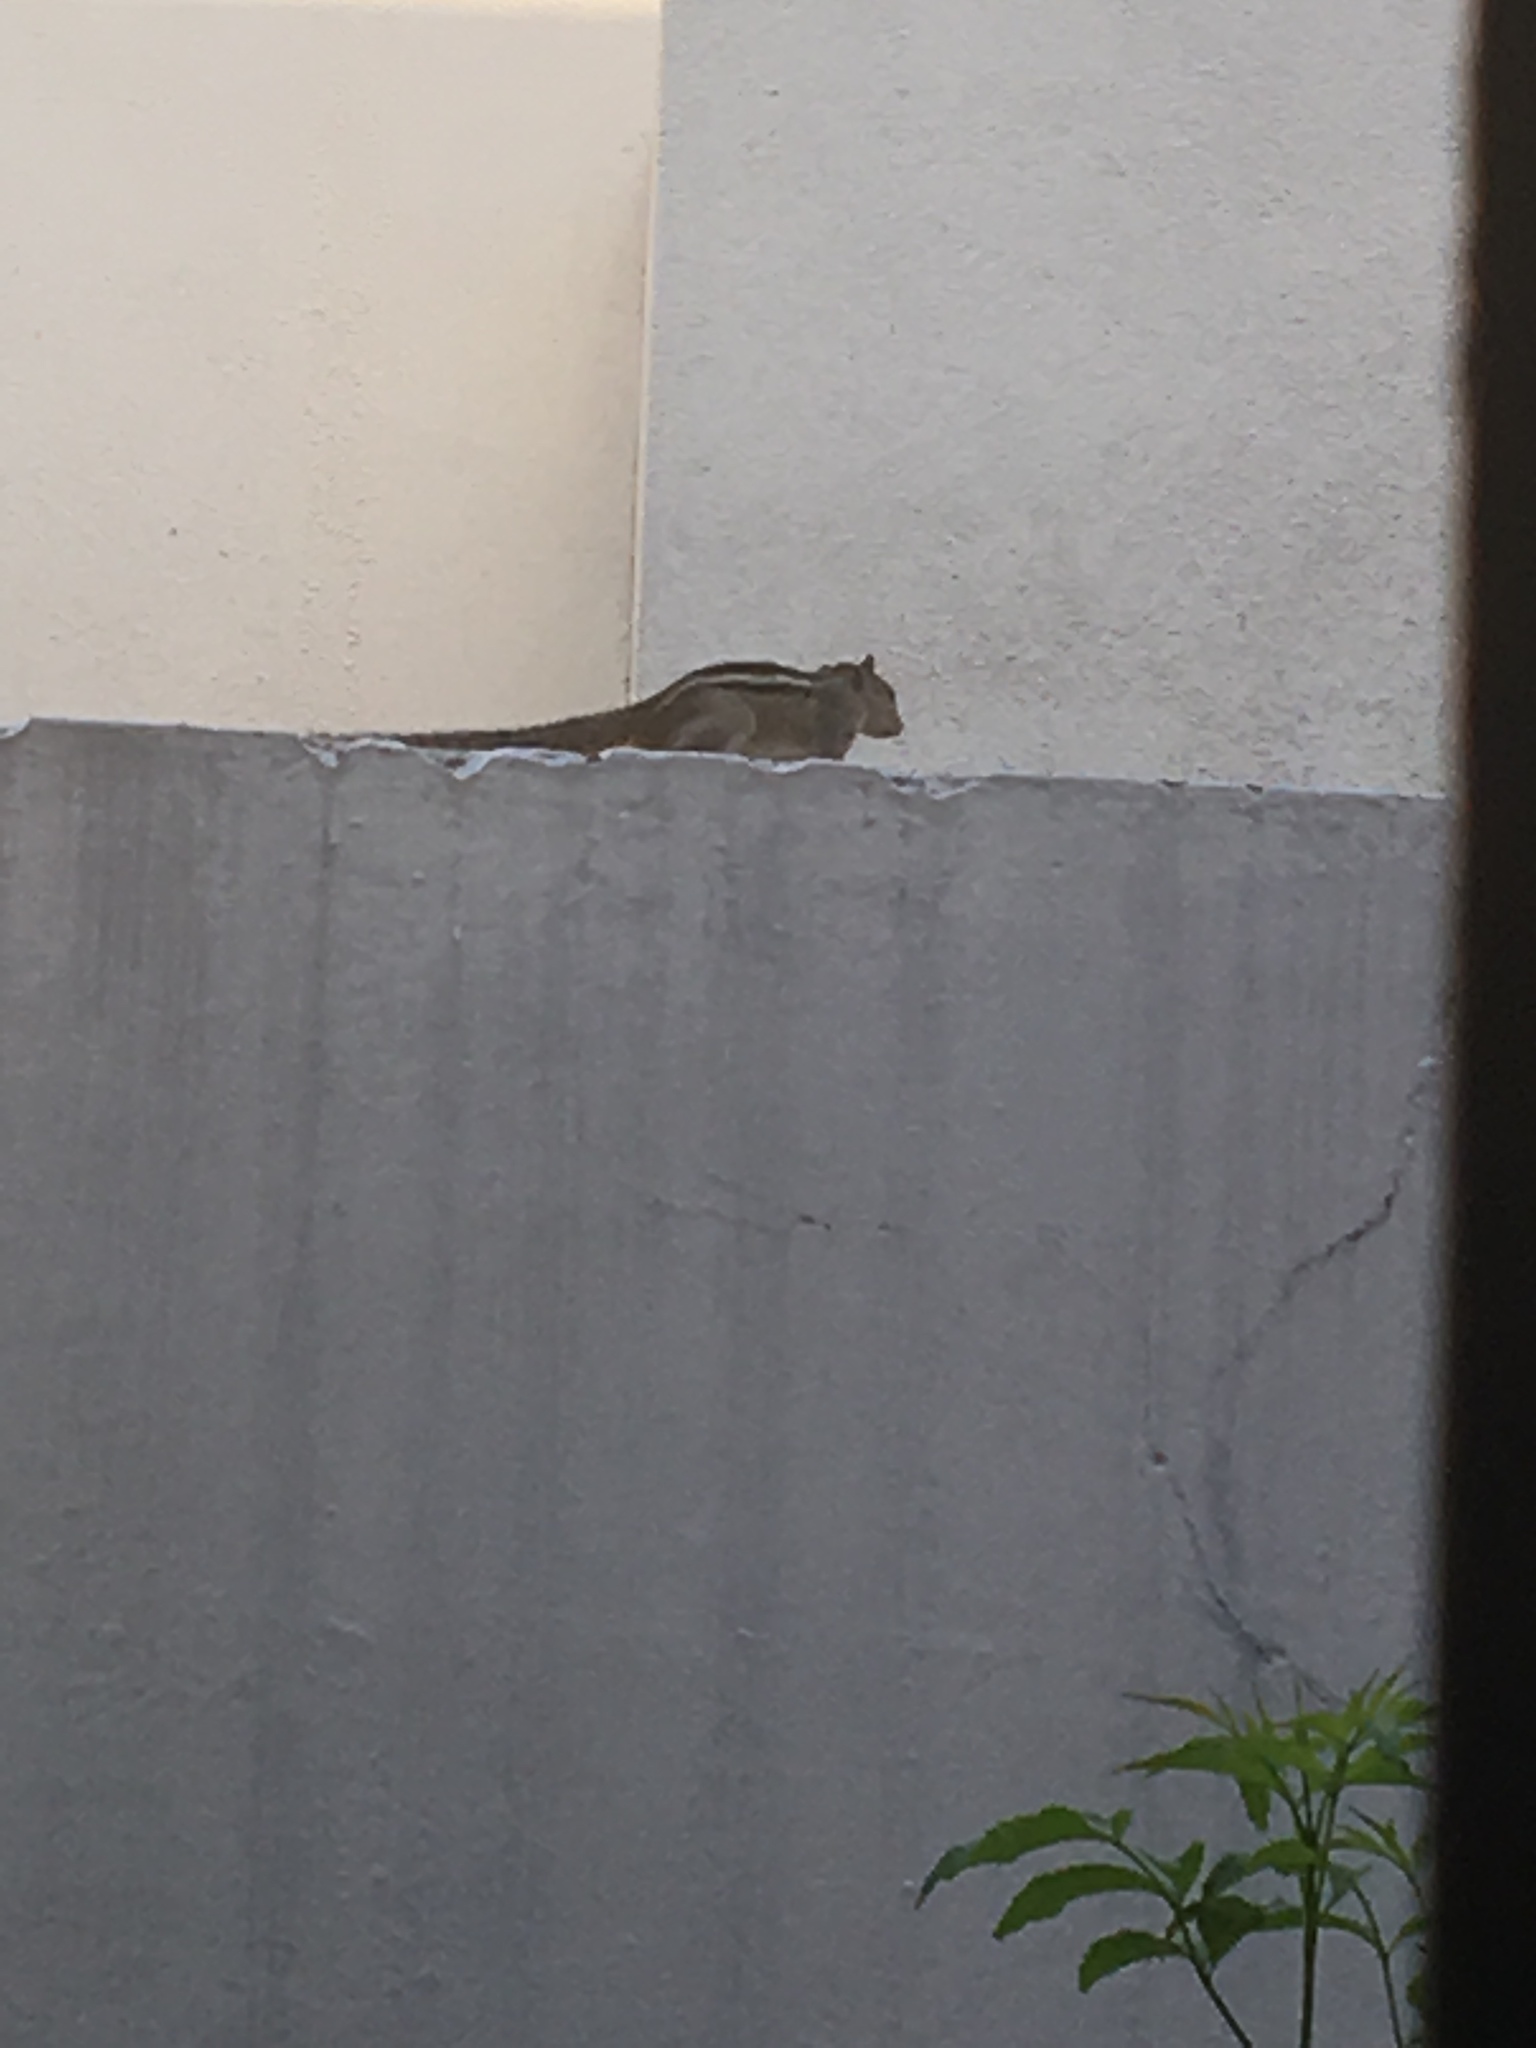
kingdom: Animalia
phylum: Chordata
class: Mammalia
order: Rodentia
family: Sciuridae
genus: Funambulus
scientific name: Funambulus palmarum
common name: Indian palm squirrel
